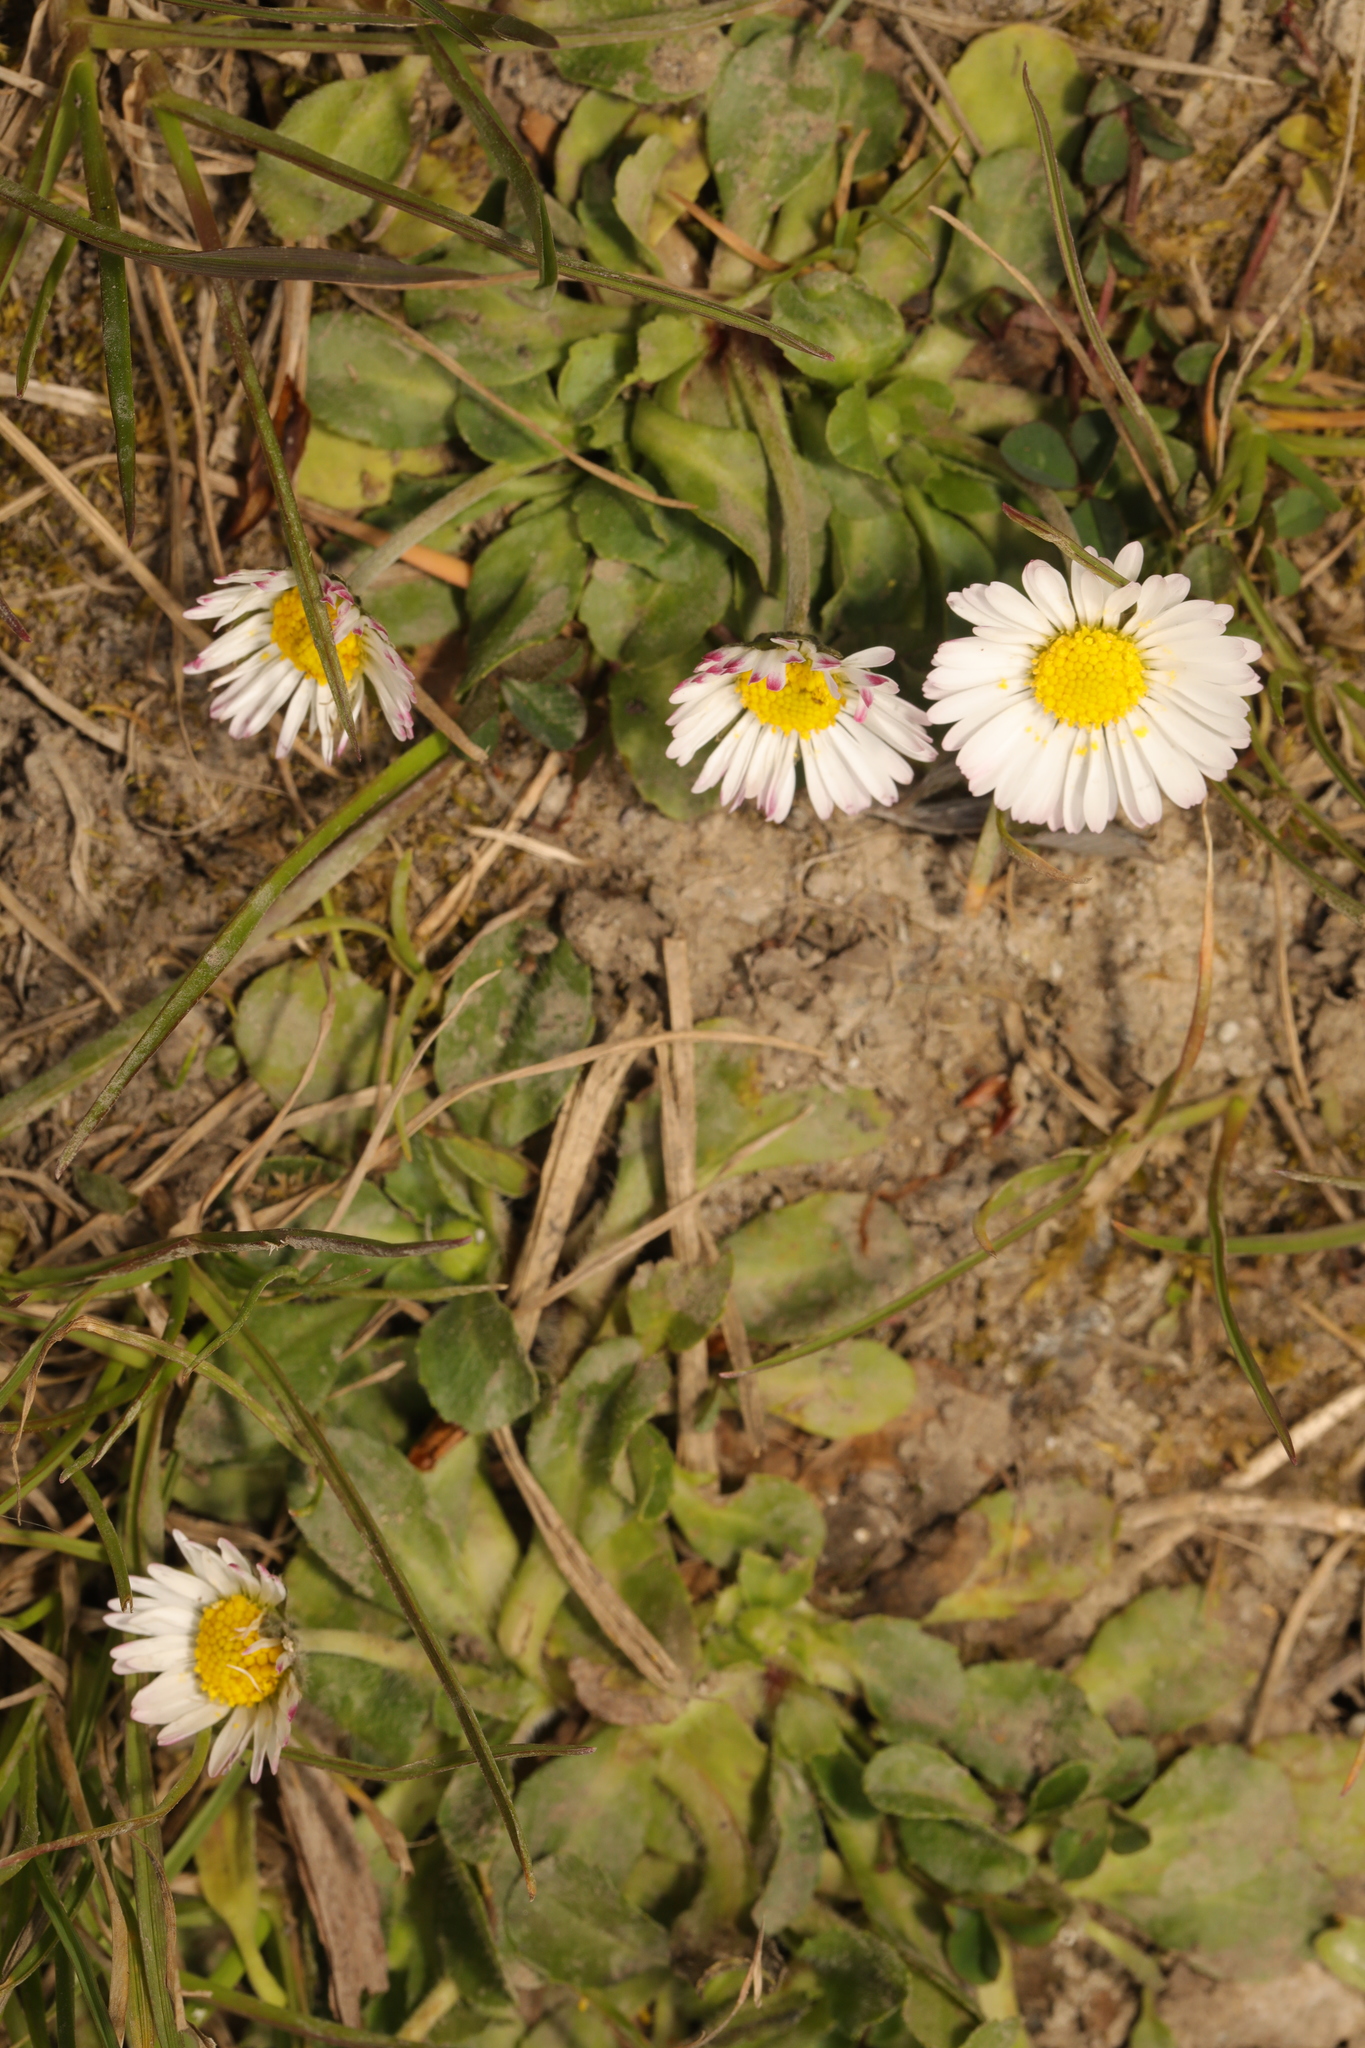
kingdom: Plantae
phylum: Tracheophyta
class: Magnoliopsida
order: Asterales
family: Asteraceae
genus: Bellis
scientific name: Bellis perennis
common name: Lawndaisy
